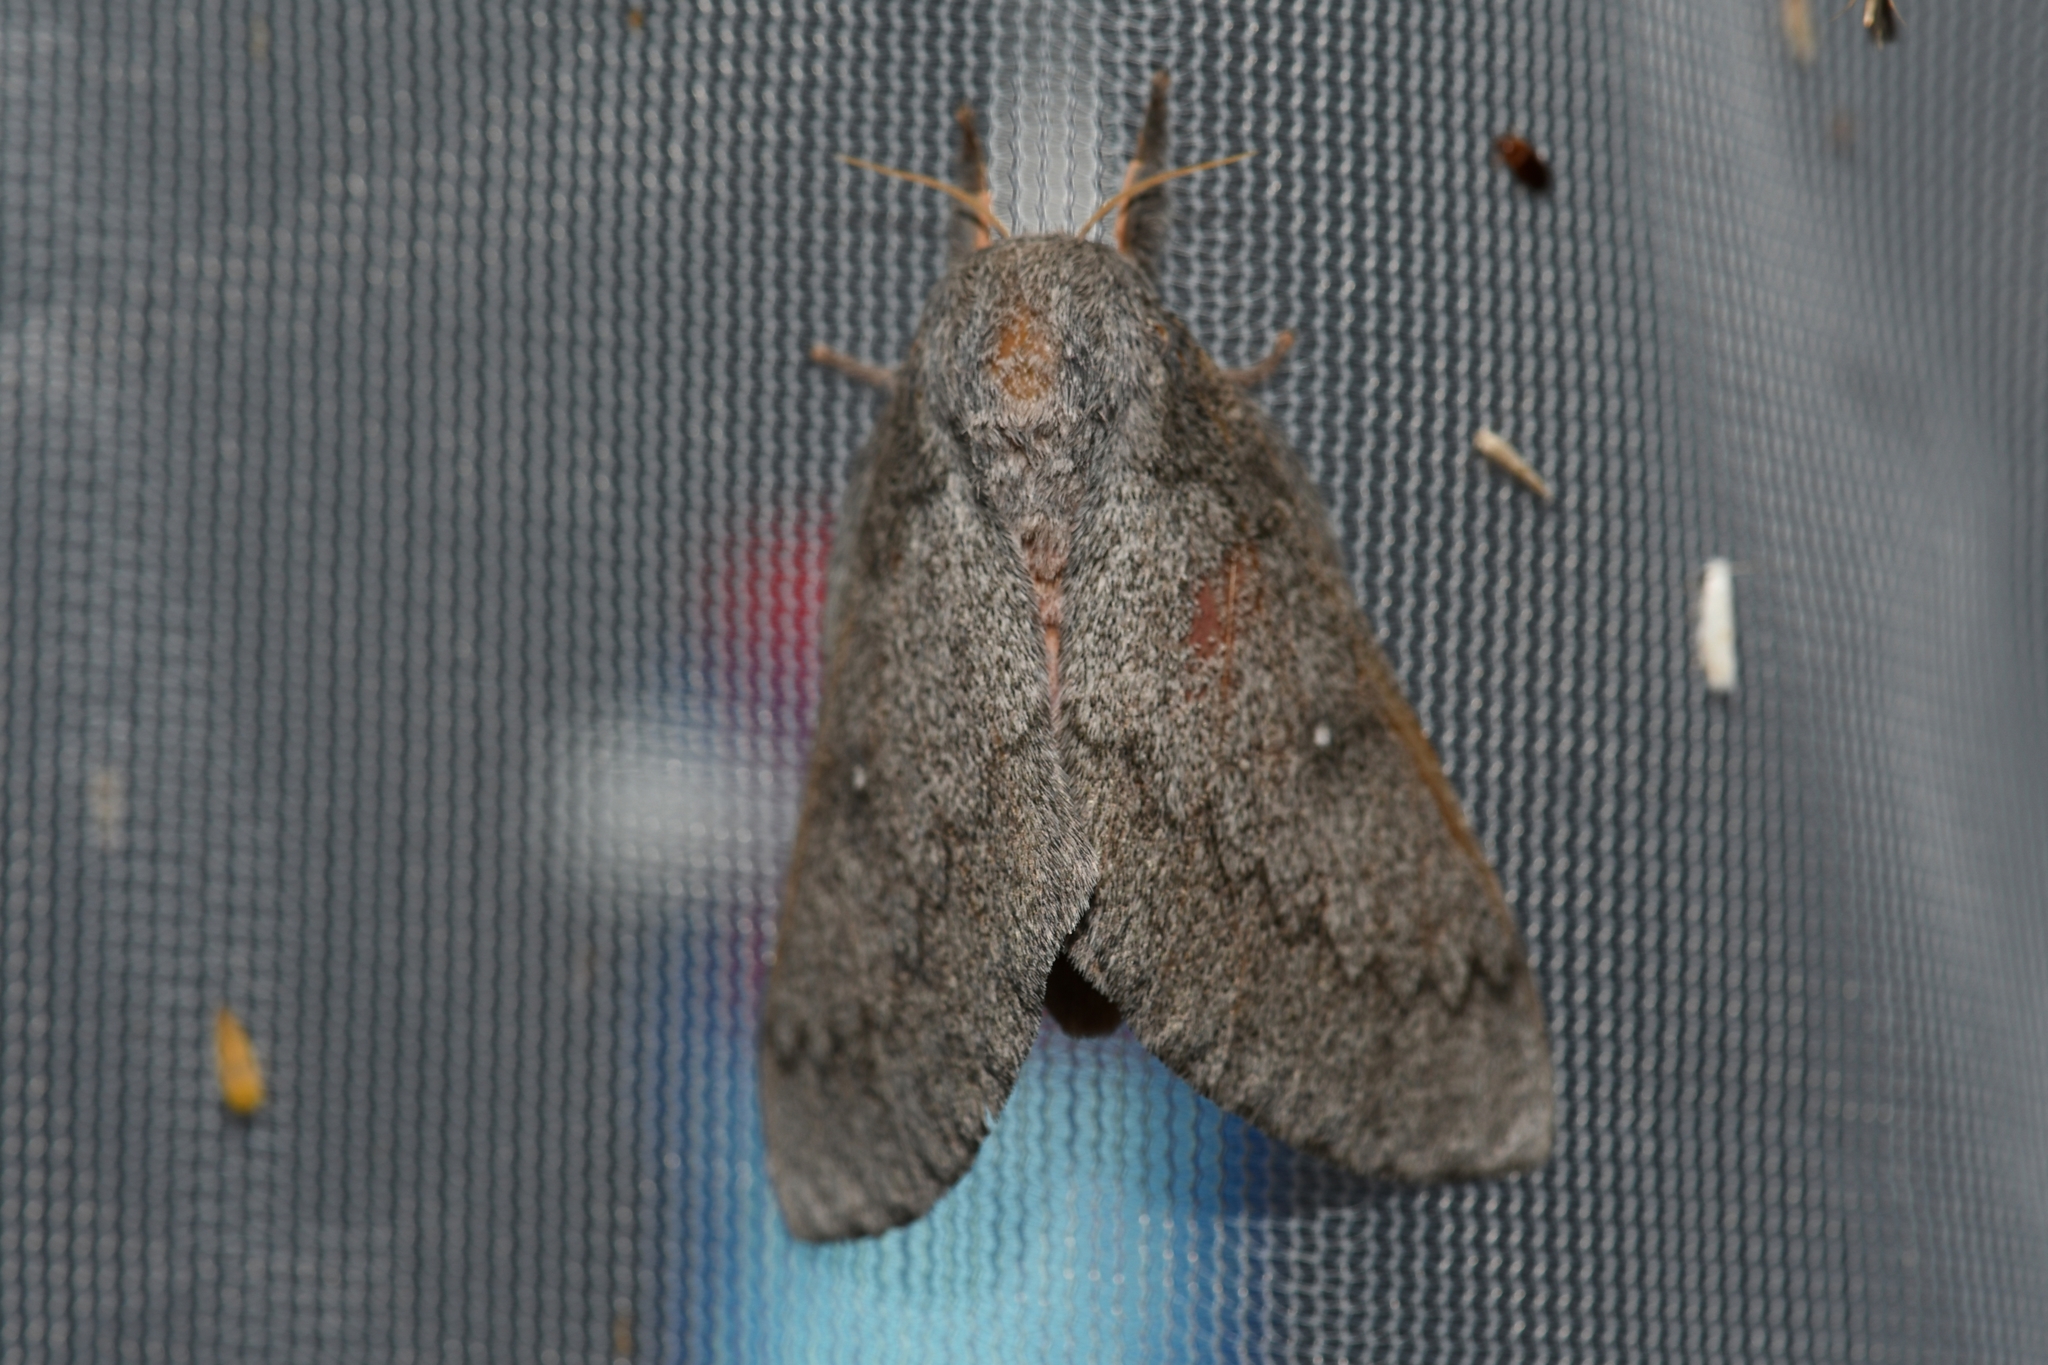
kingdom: Animalia
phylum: Arthropoda
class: Insecta
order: Lepidoptera
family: Saturniidae
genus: Syssphinx
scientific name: Syssphinx hubbardi
